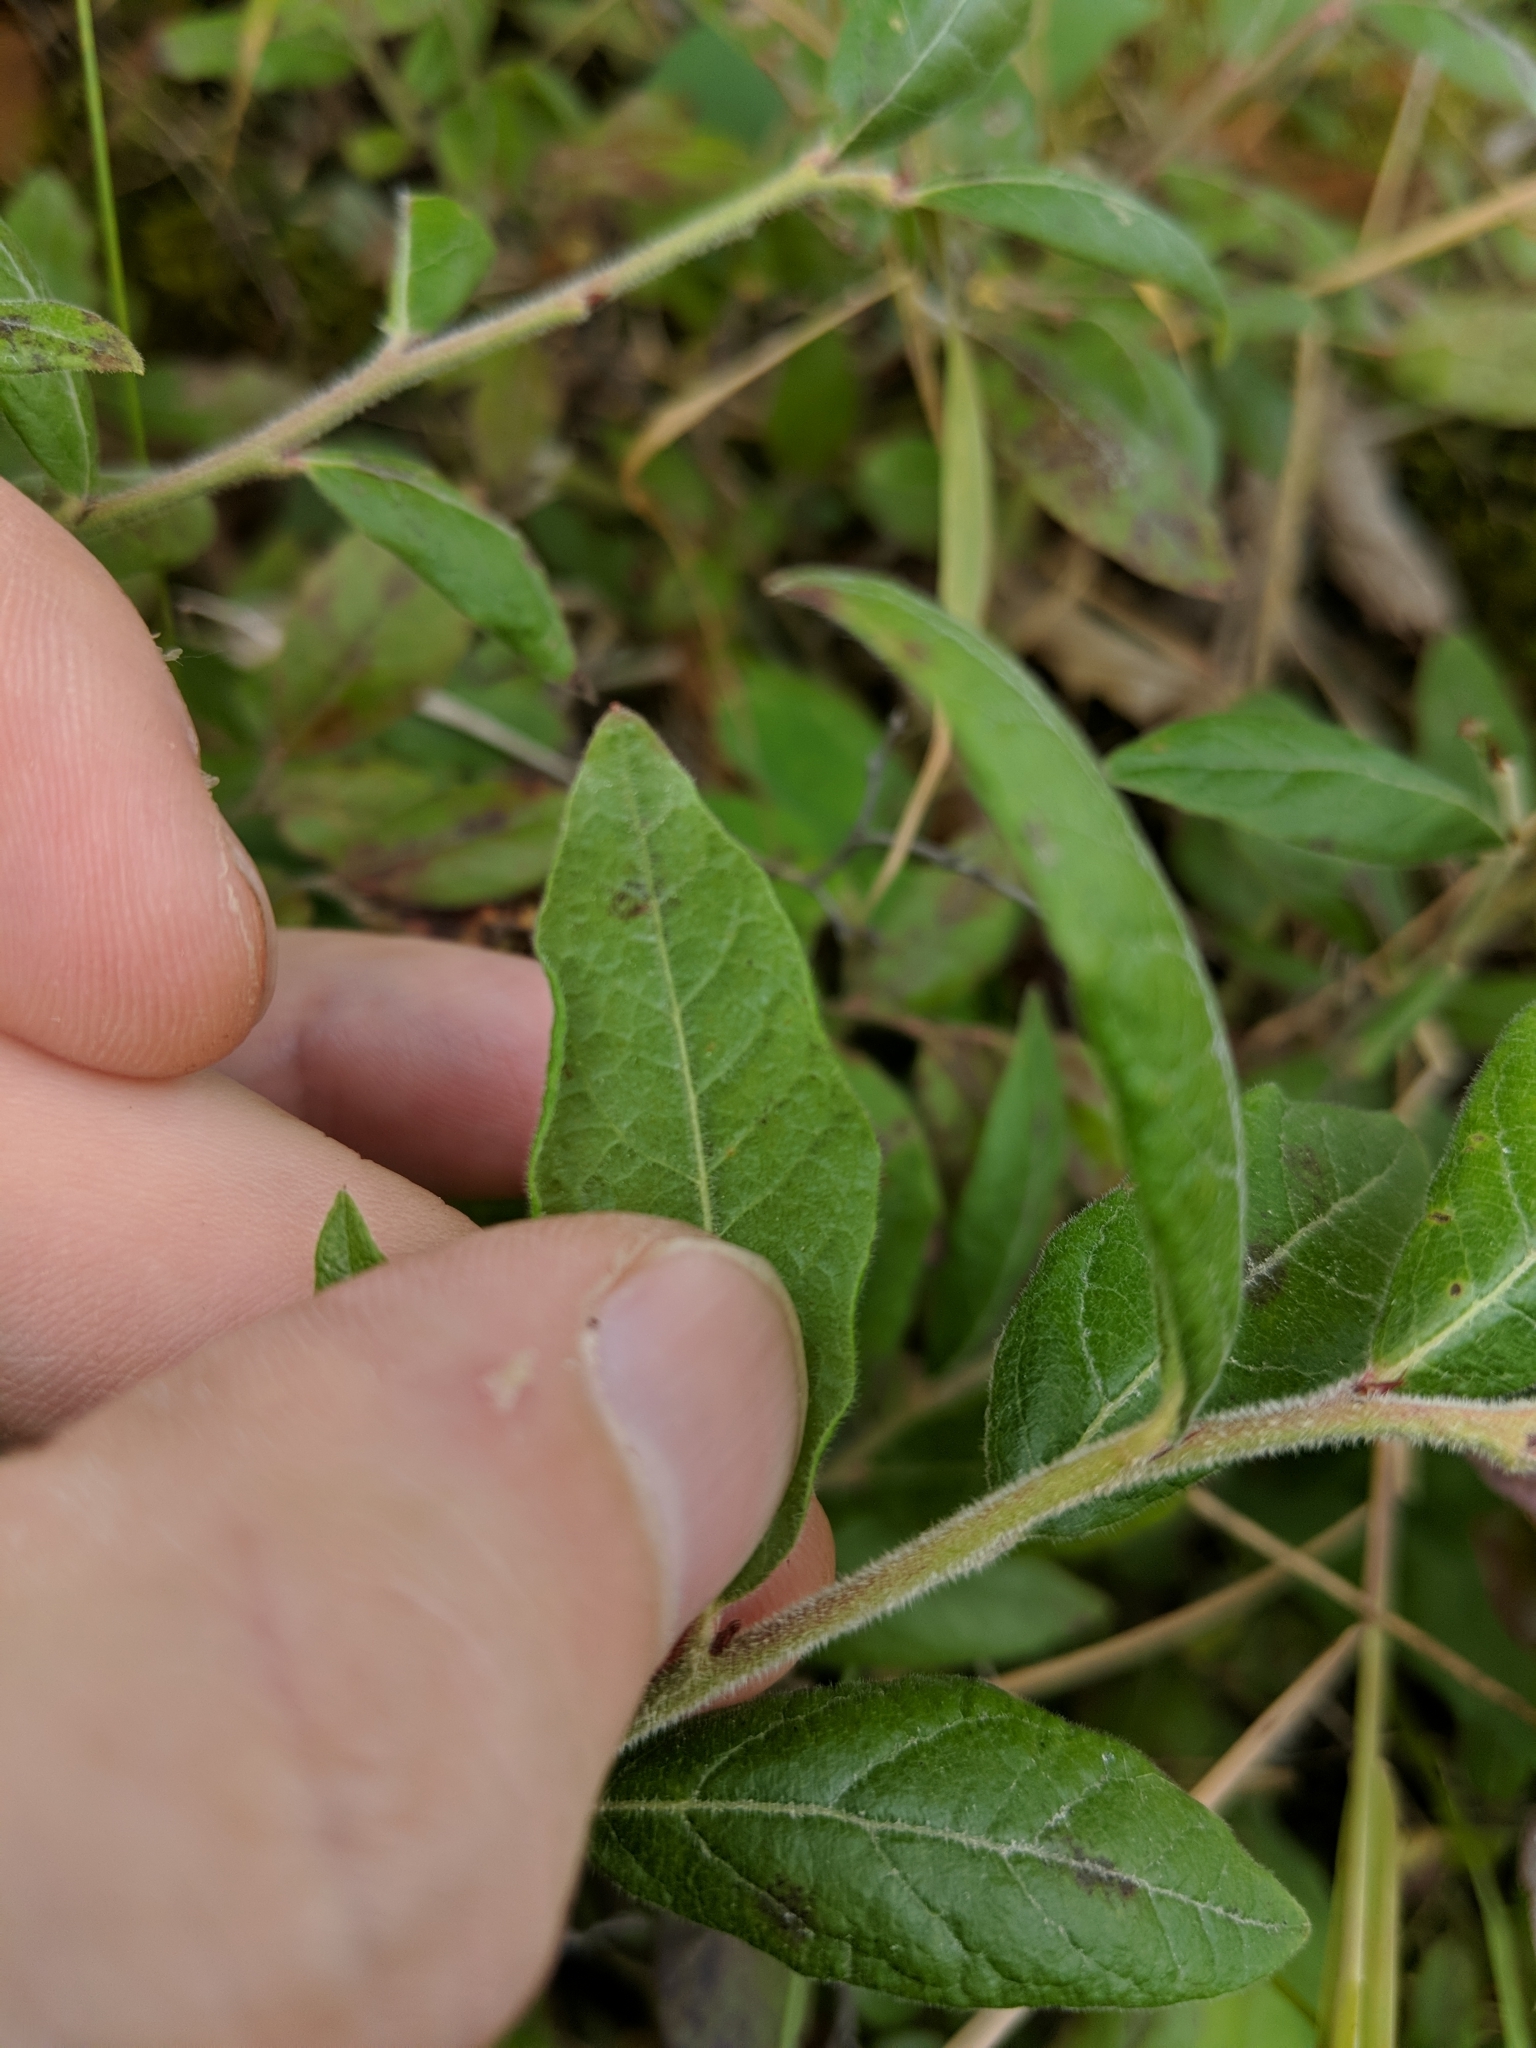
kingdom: Plantae
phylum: Tracheophyta
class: Magnoliopsida
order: Ericales
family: Ericaceae
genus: Vaccinium
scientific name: Vaccinium myrtilloides
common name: Canada blueberry
